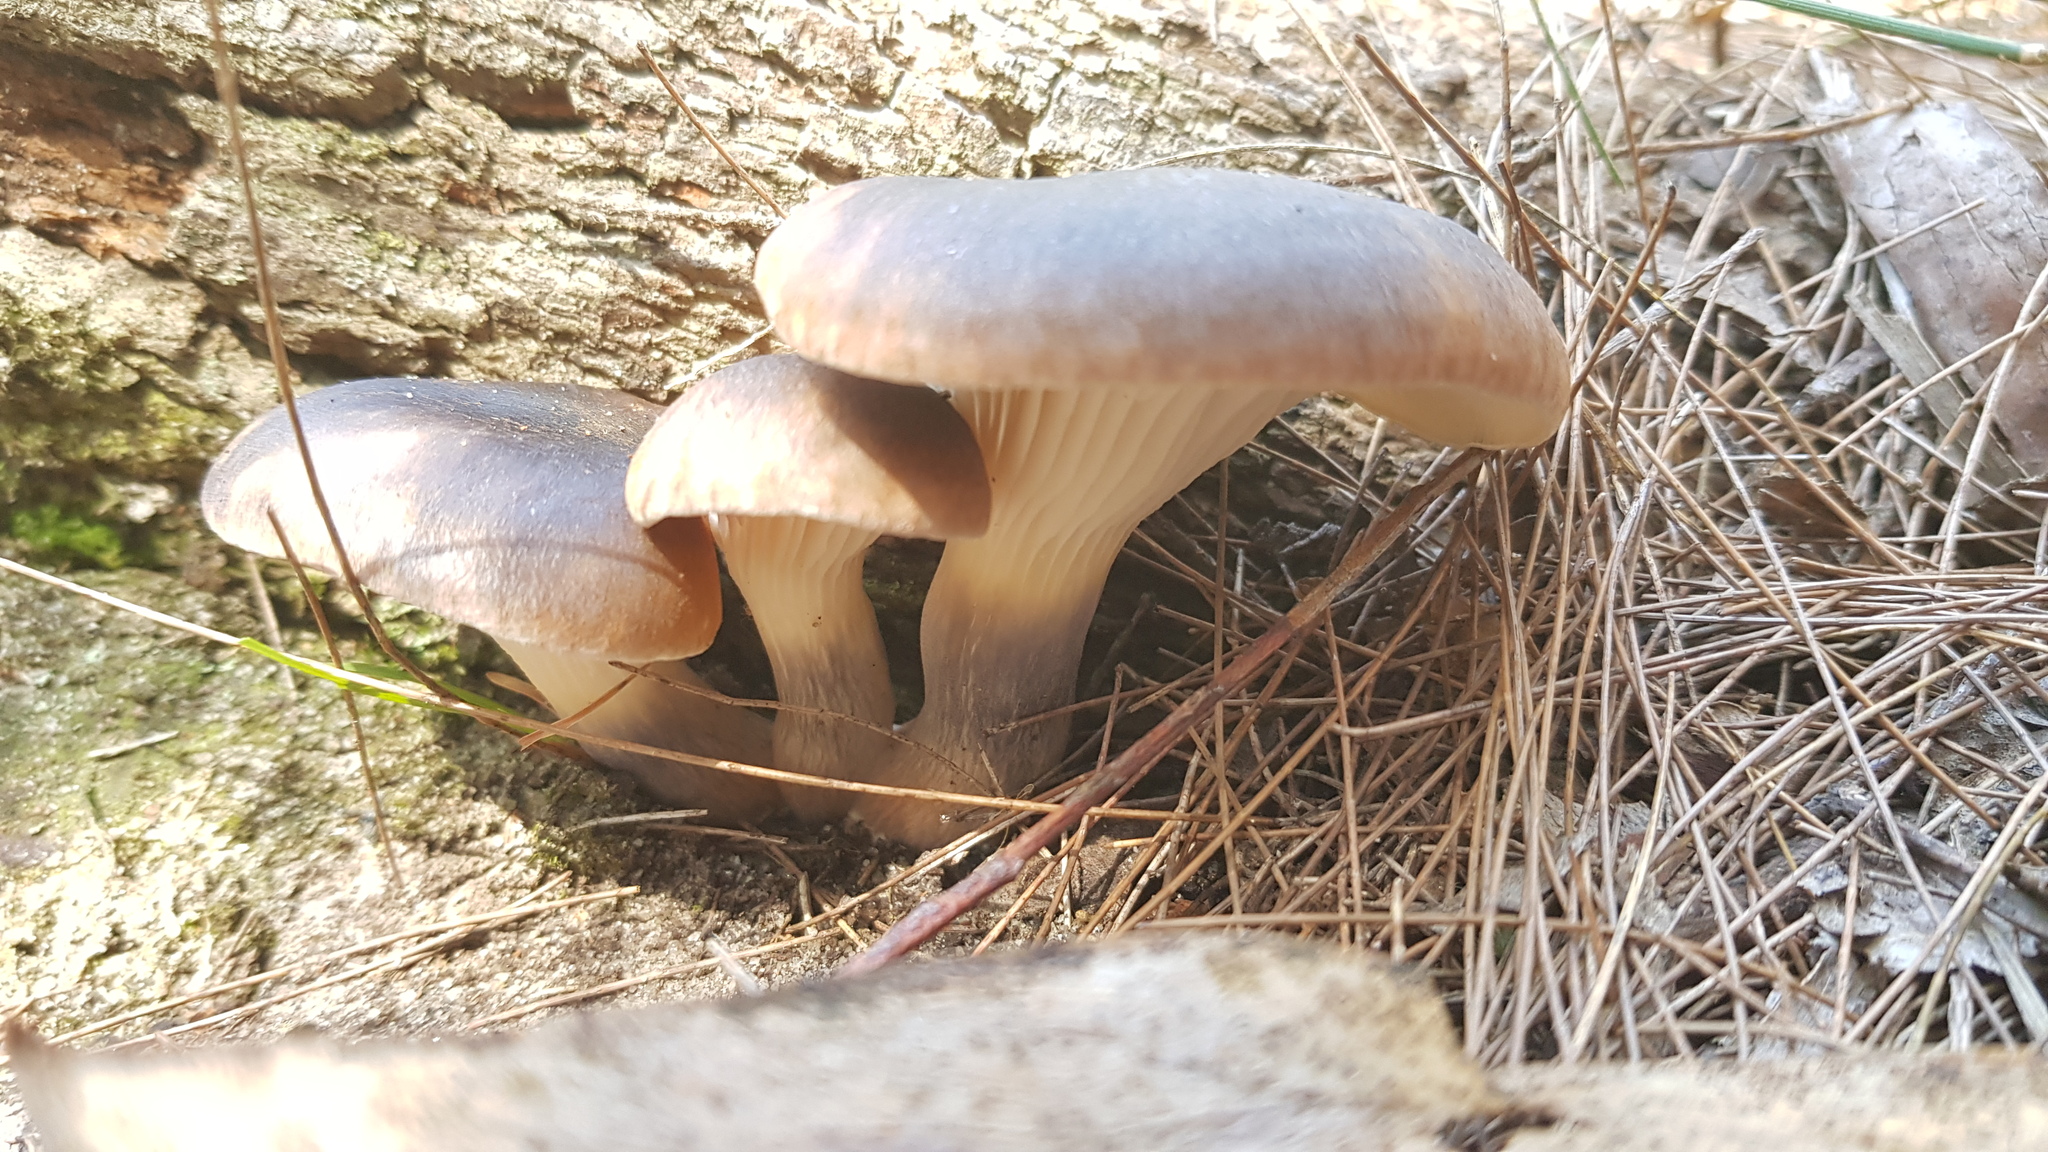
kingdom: Fungi
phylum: Basidiomycota
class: Agaricomycetes
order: Agaricales
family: Omphalotaceae
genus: Omphalotus
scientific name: Omphalotus nidiformis
